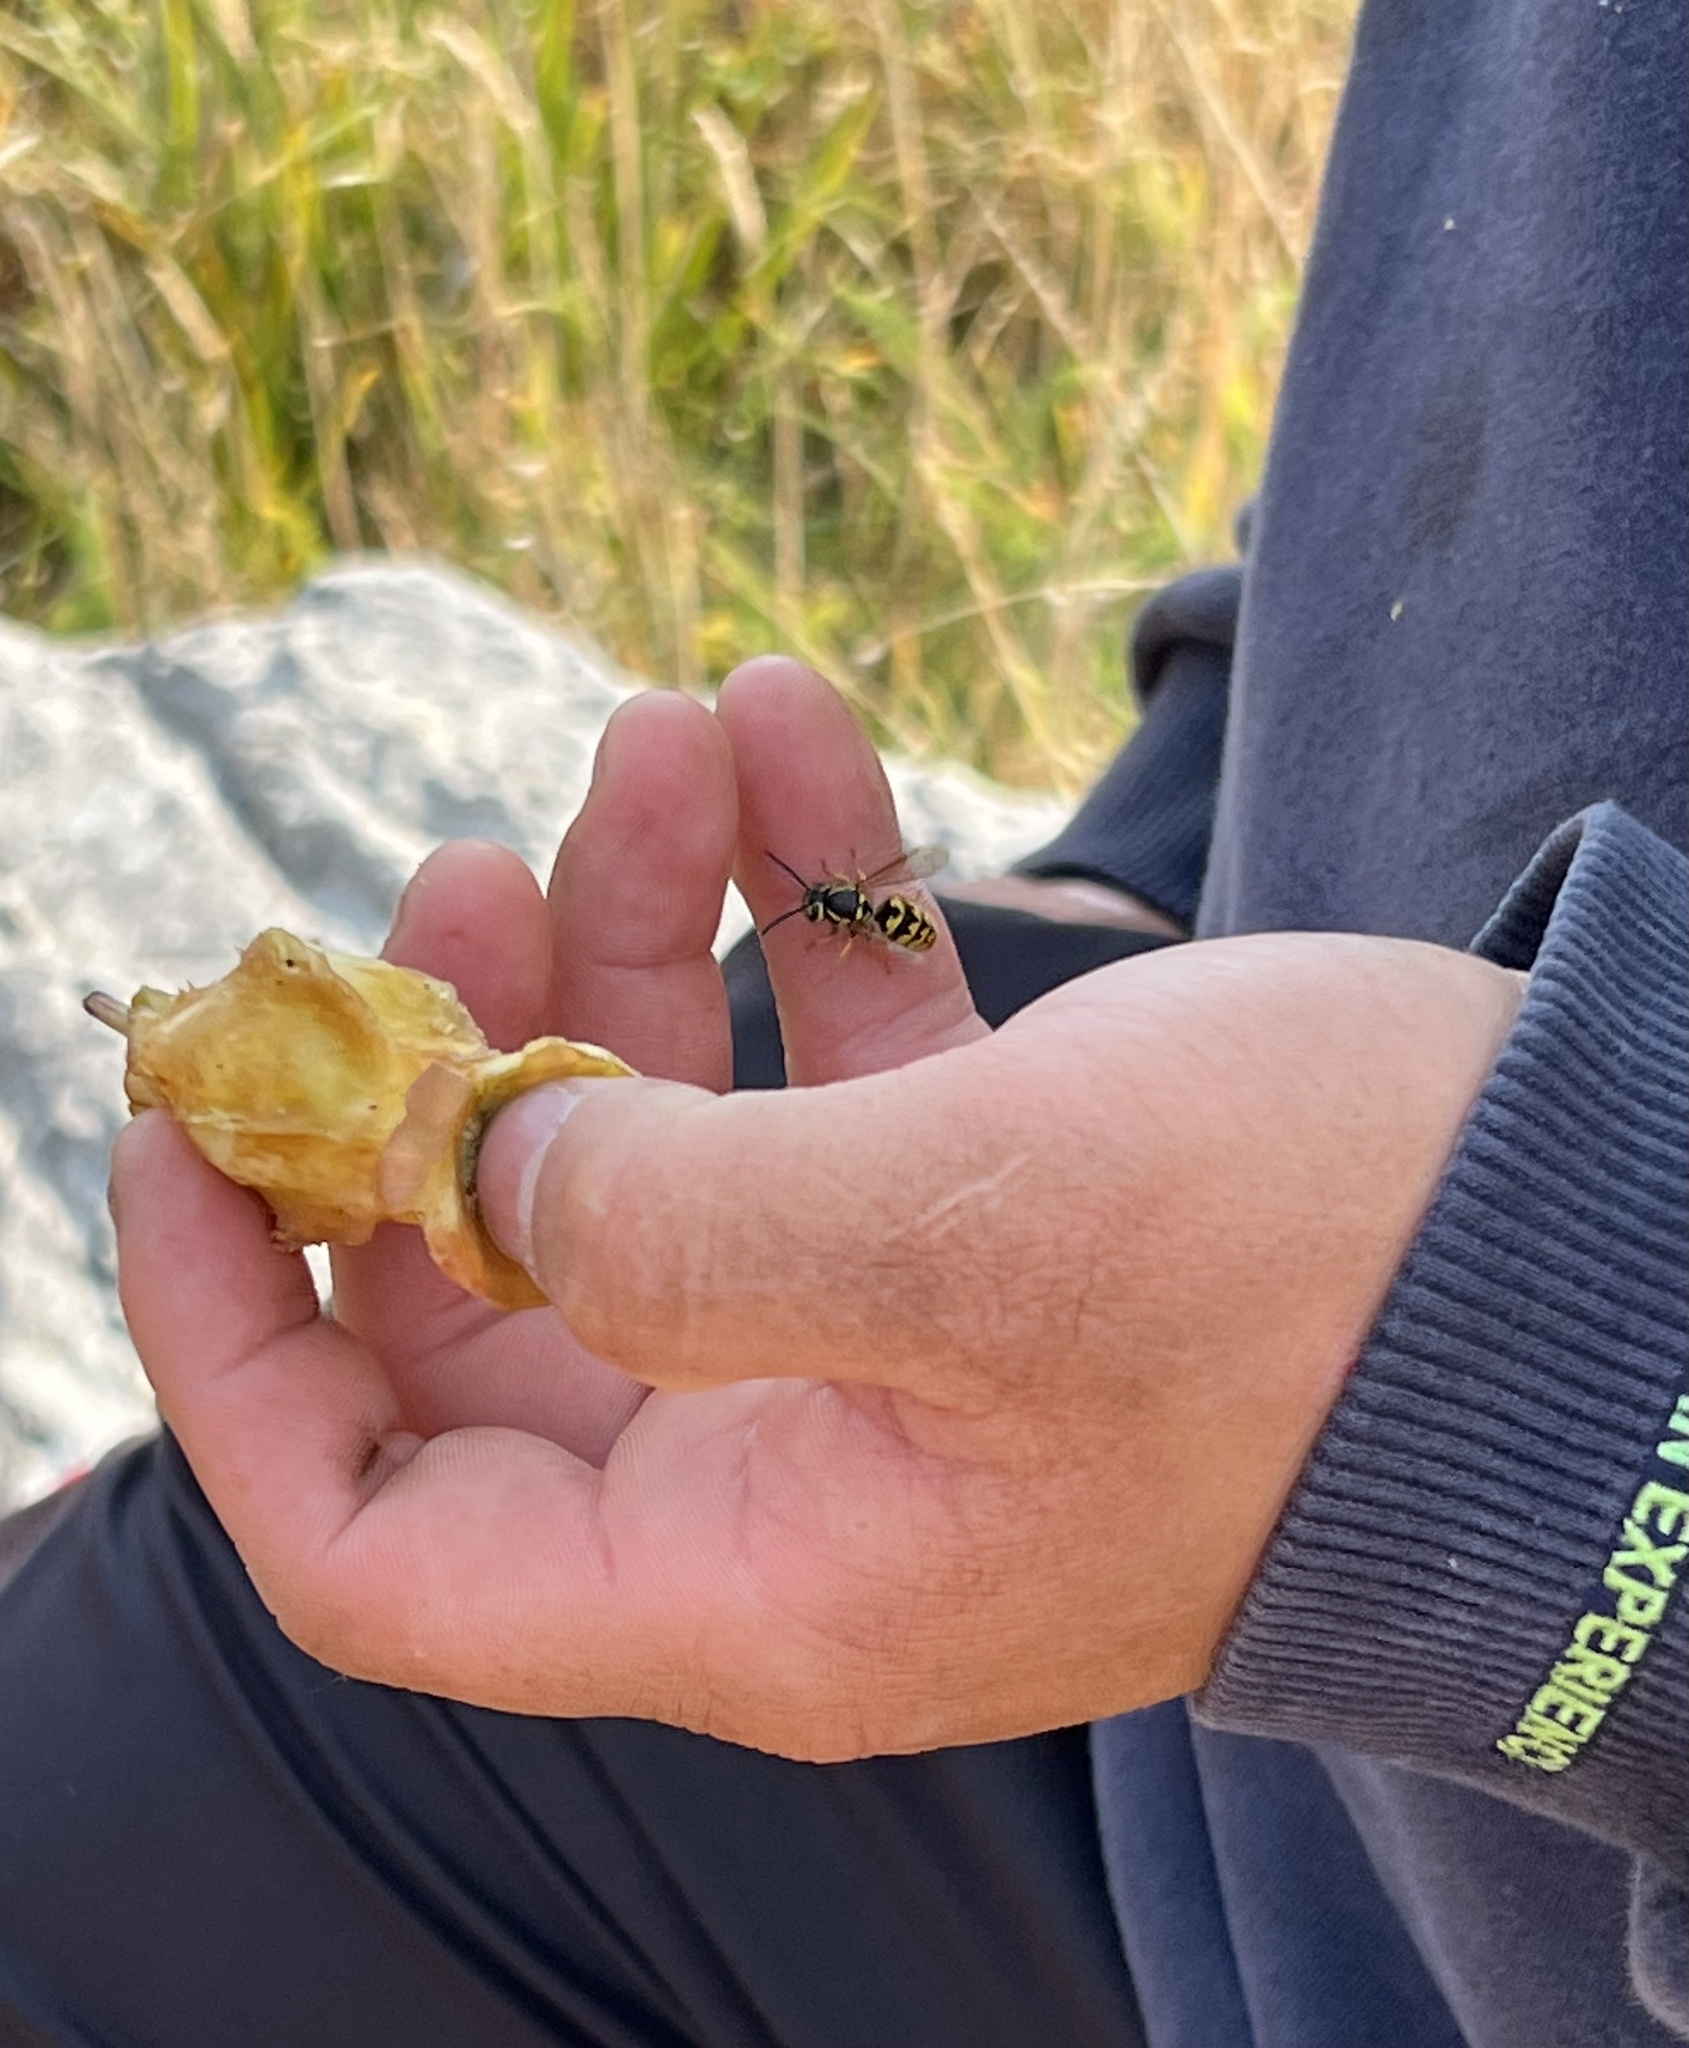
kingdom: Animalia
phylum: Arthropoda
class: Insecta
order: Hymenoptera
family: Vespidae
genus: Vespula
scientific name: Vespula pensylvanica
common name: Western yellowjacket
